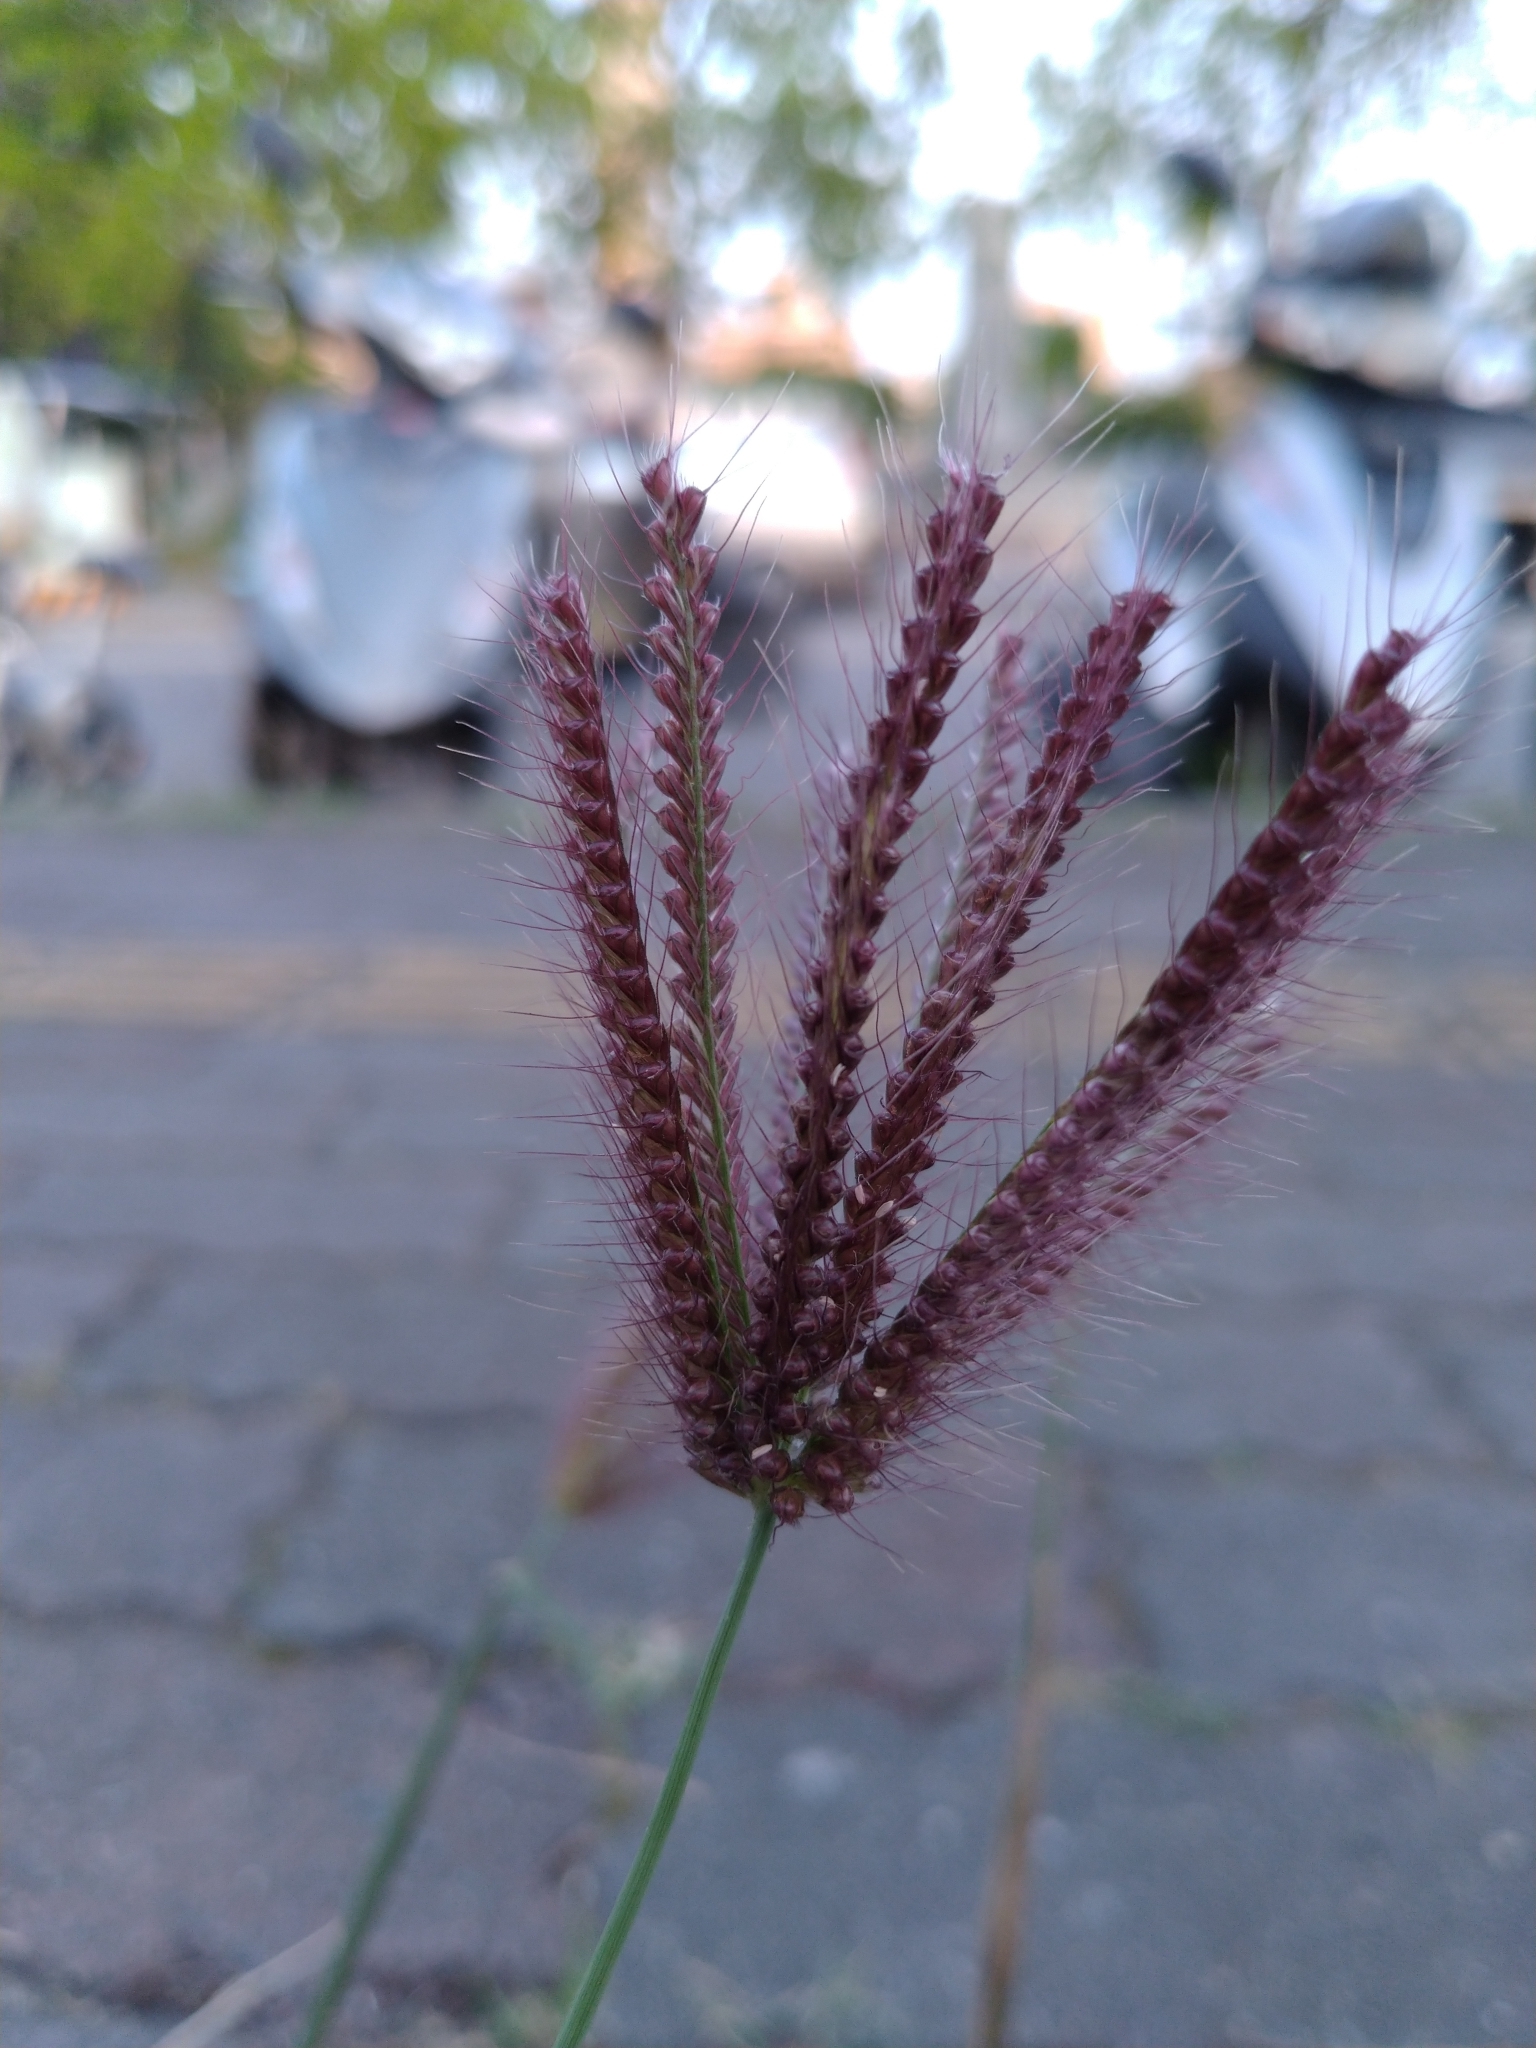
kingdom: Plantae
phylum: Tracheophyta
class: Liliopsida
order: Poales
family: Poaceae
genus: Chloris
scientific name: Chloris barbata
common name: Swollen fingergrass
